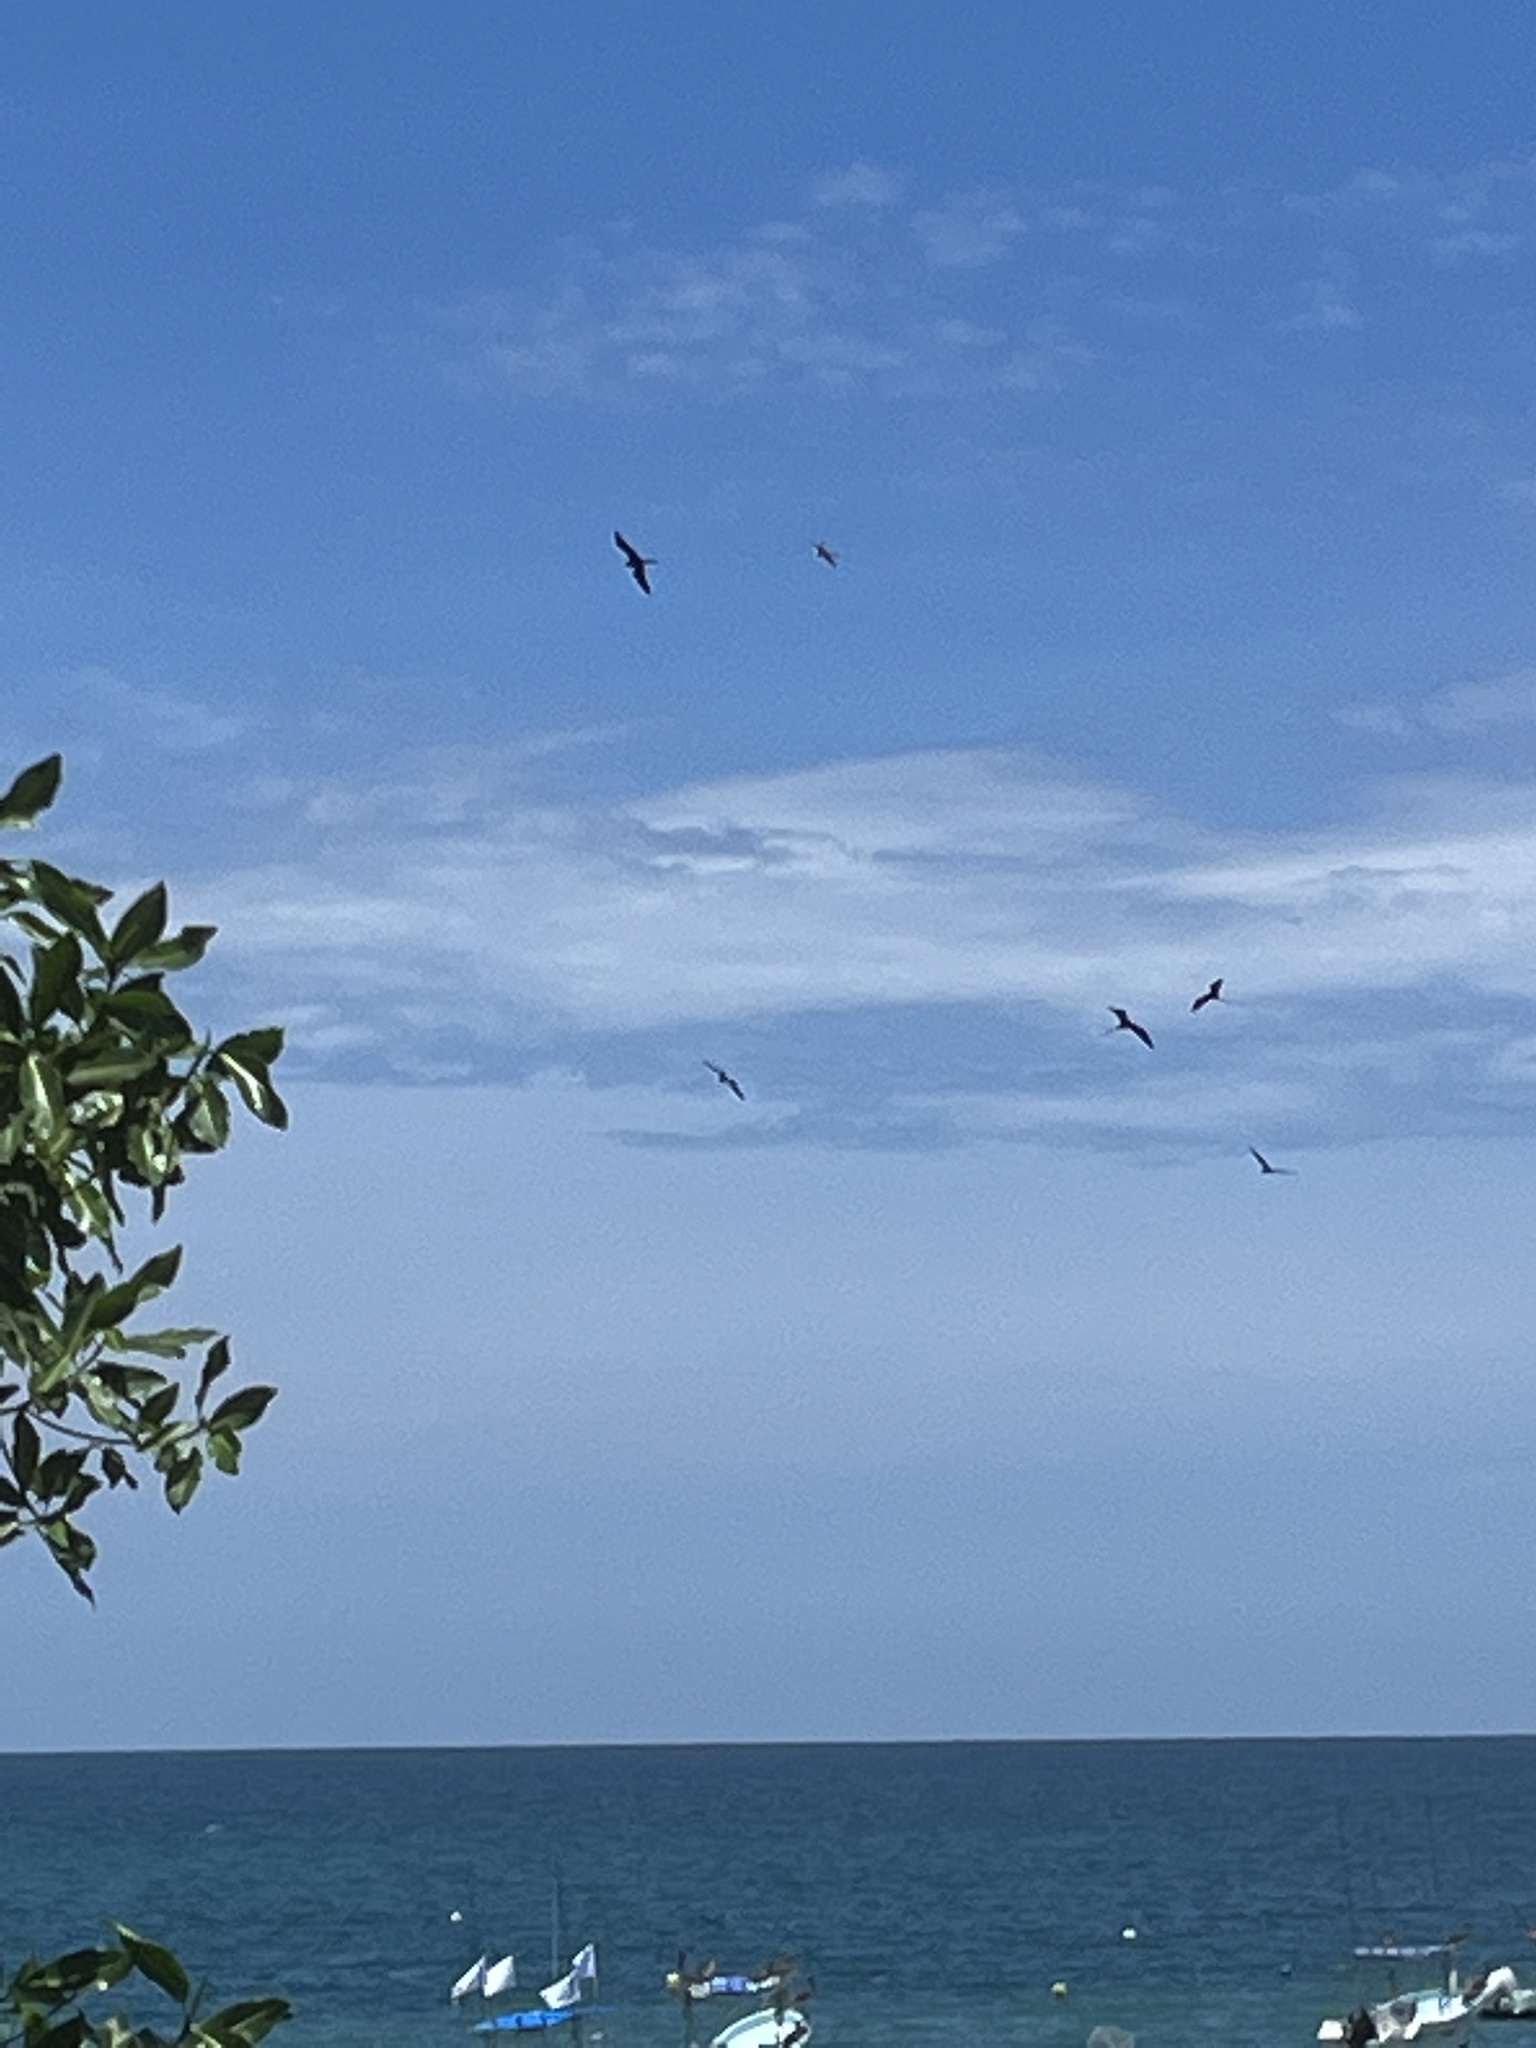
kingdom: Animalia
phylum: Chordata
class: Aves
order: Suliformes
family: Fregatidae
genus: Fregata
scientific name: Fregata magnificens
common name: Magnificent frigatebird
